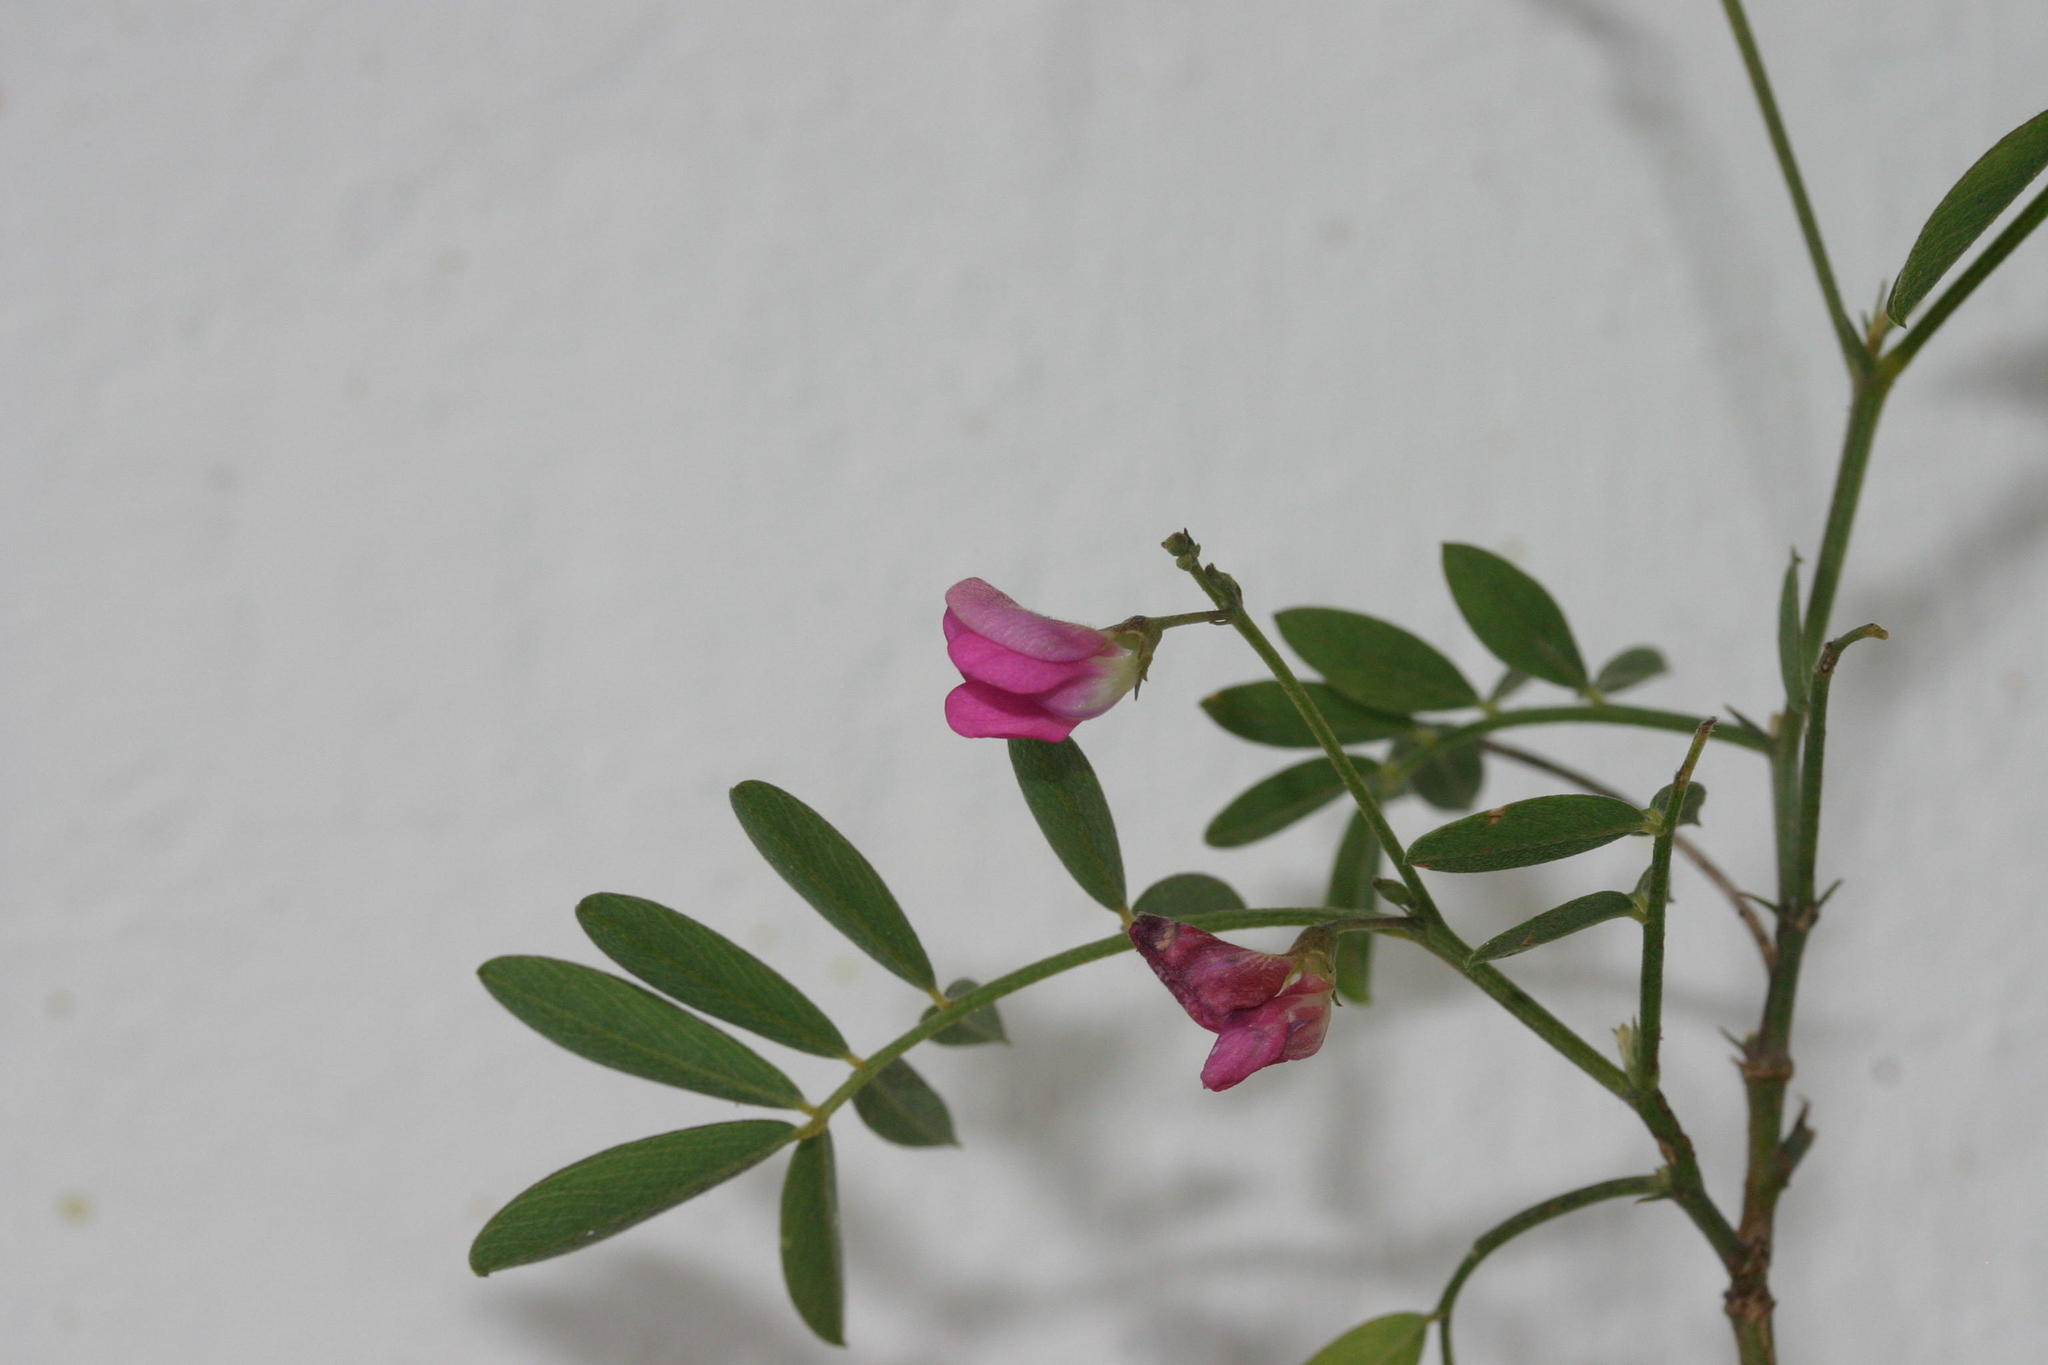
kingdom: Plantae
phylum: Tracheophyta
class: Magnoliopsida
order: Fabales
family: Fabaceae
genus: Tephrosia
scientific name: Tephrosia capensis
